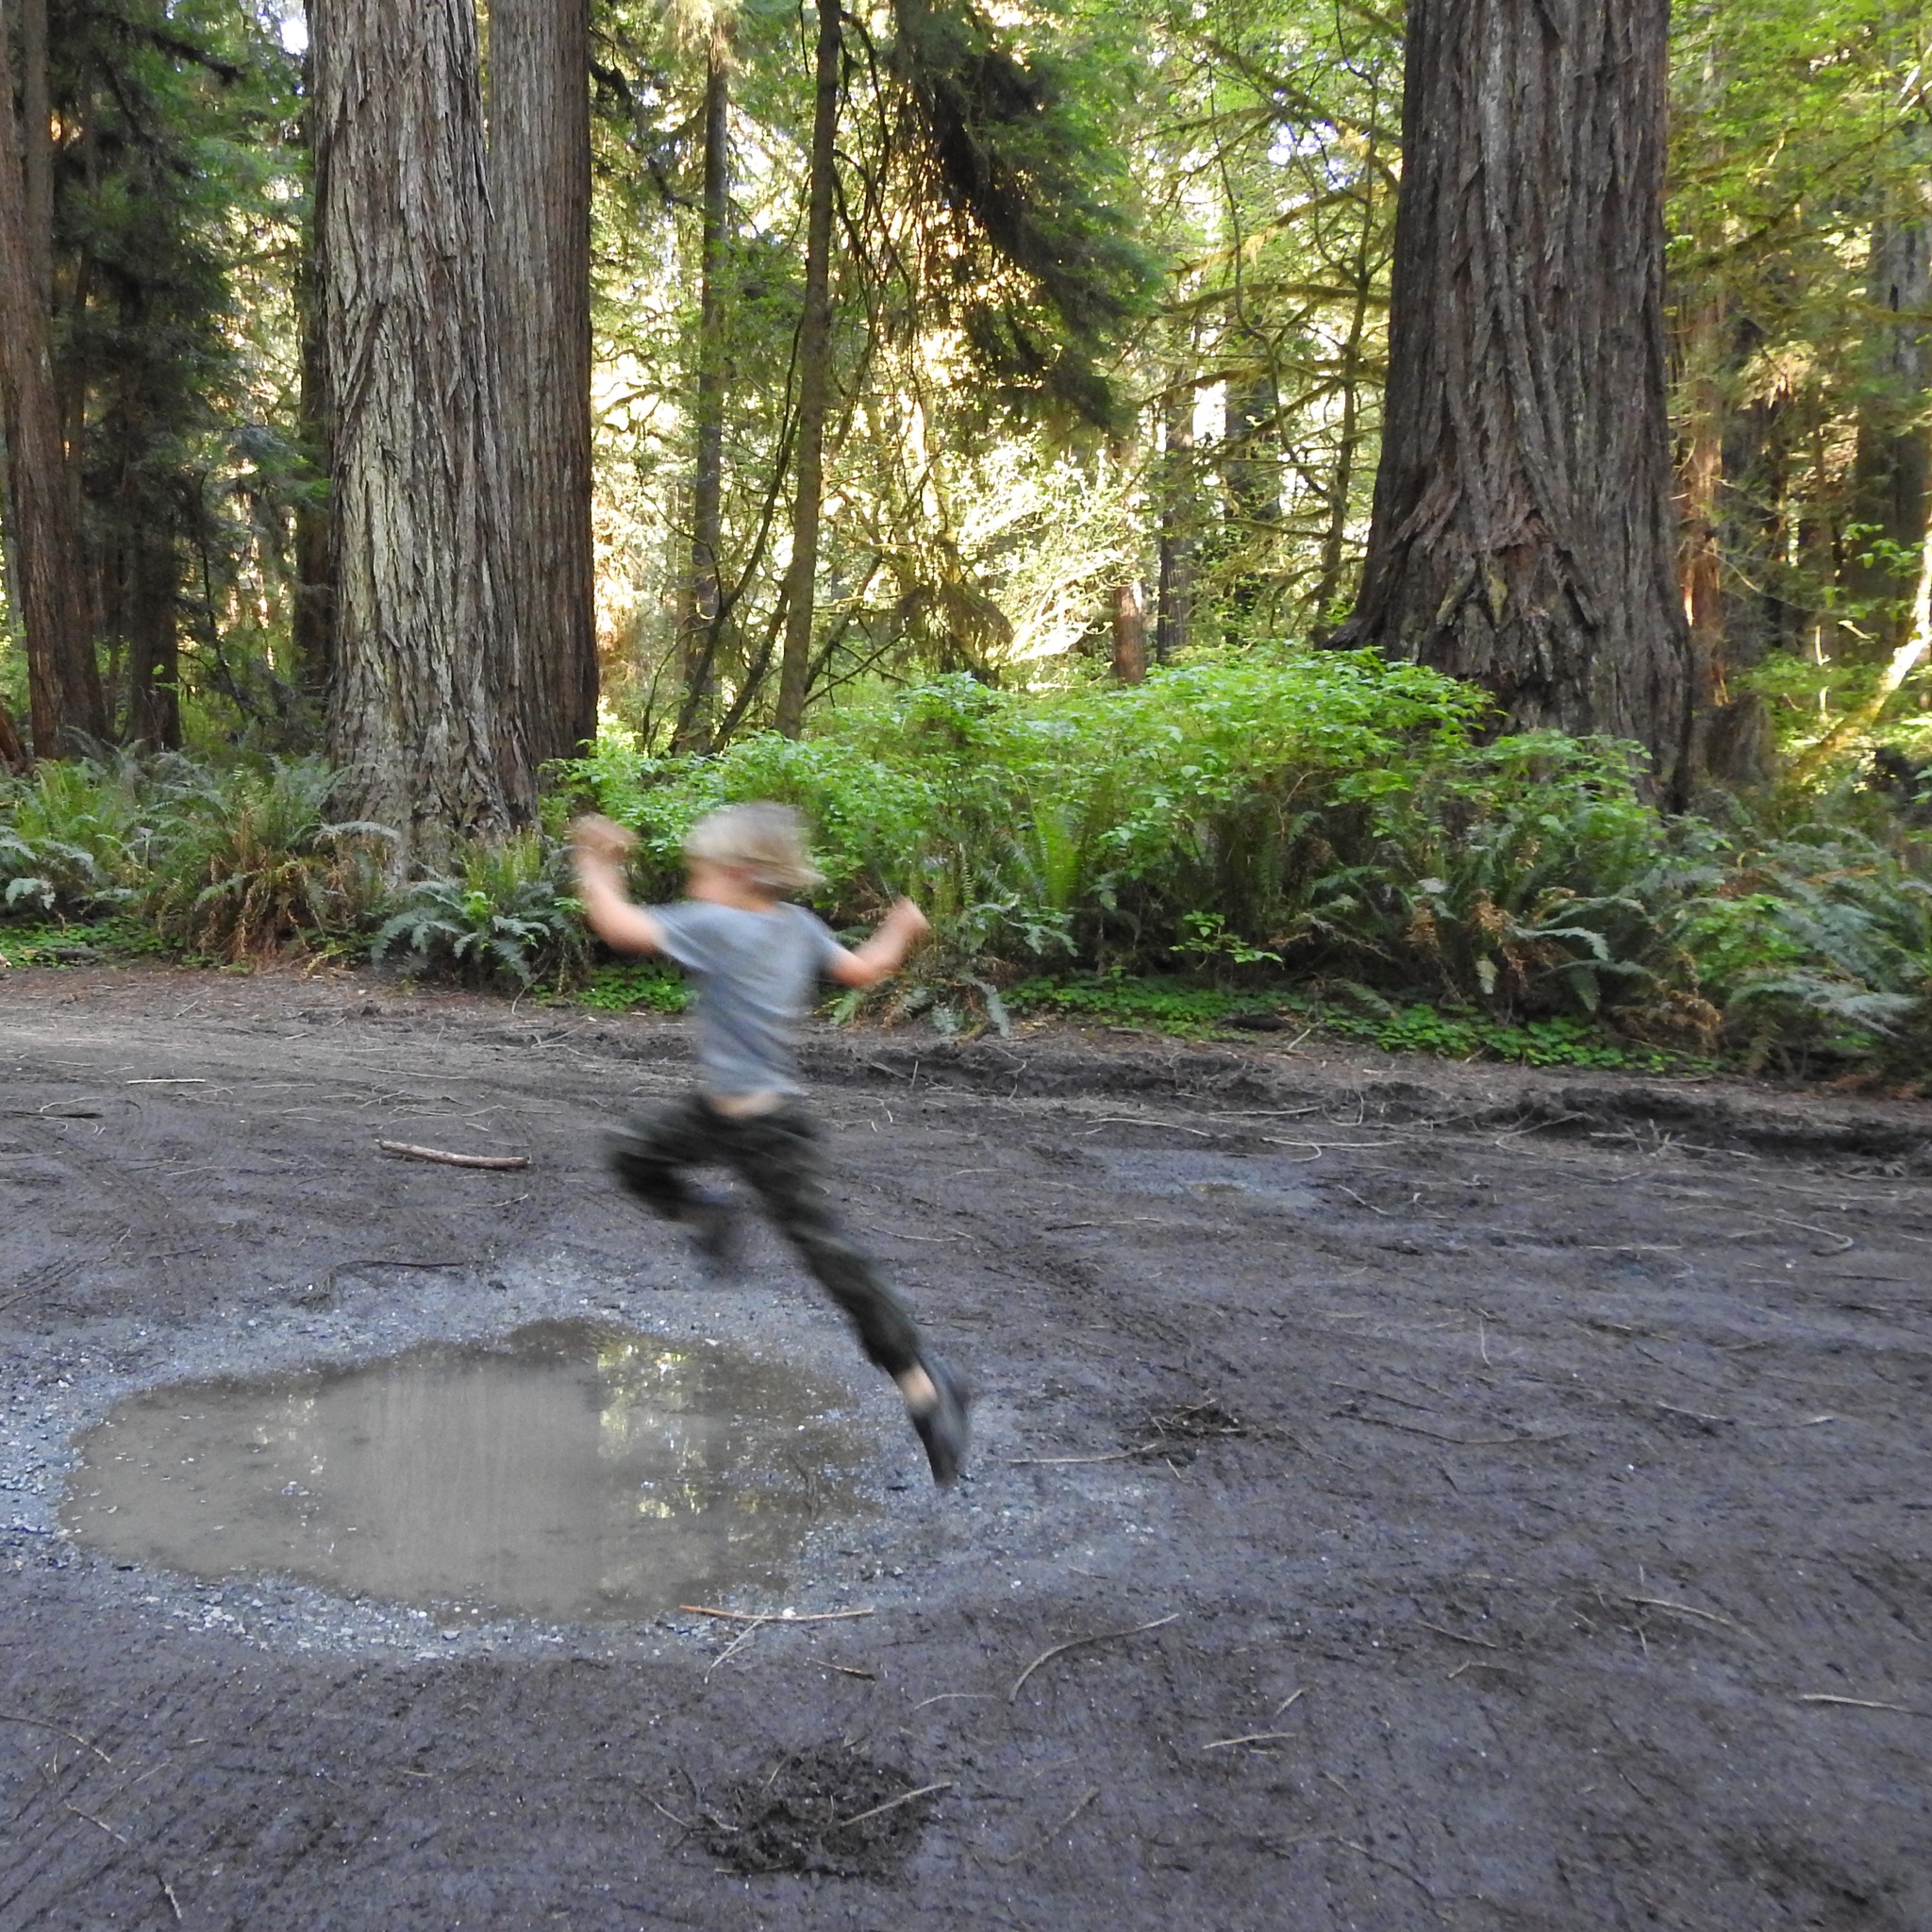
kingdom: Plantae
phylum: Tracheophyta
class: Pinopsida
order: Pinales
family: Cupressaceae
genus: Sequoia
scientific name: Sequoia sempervirens
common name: Coast redwood
